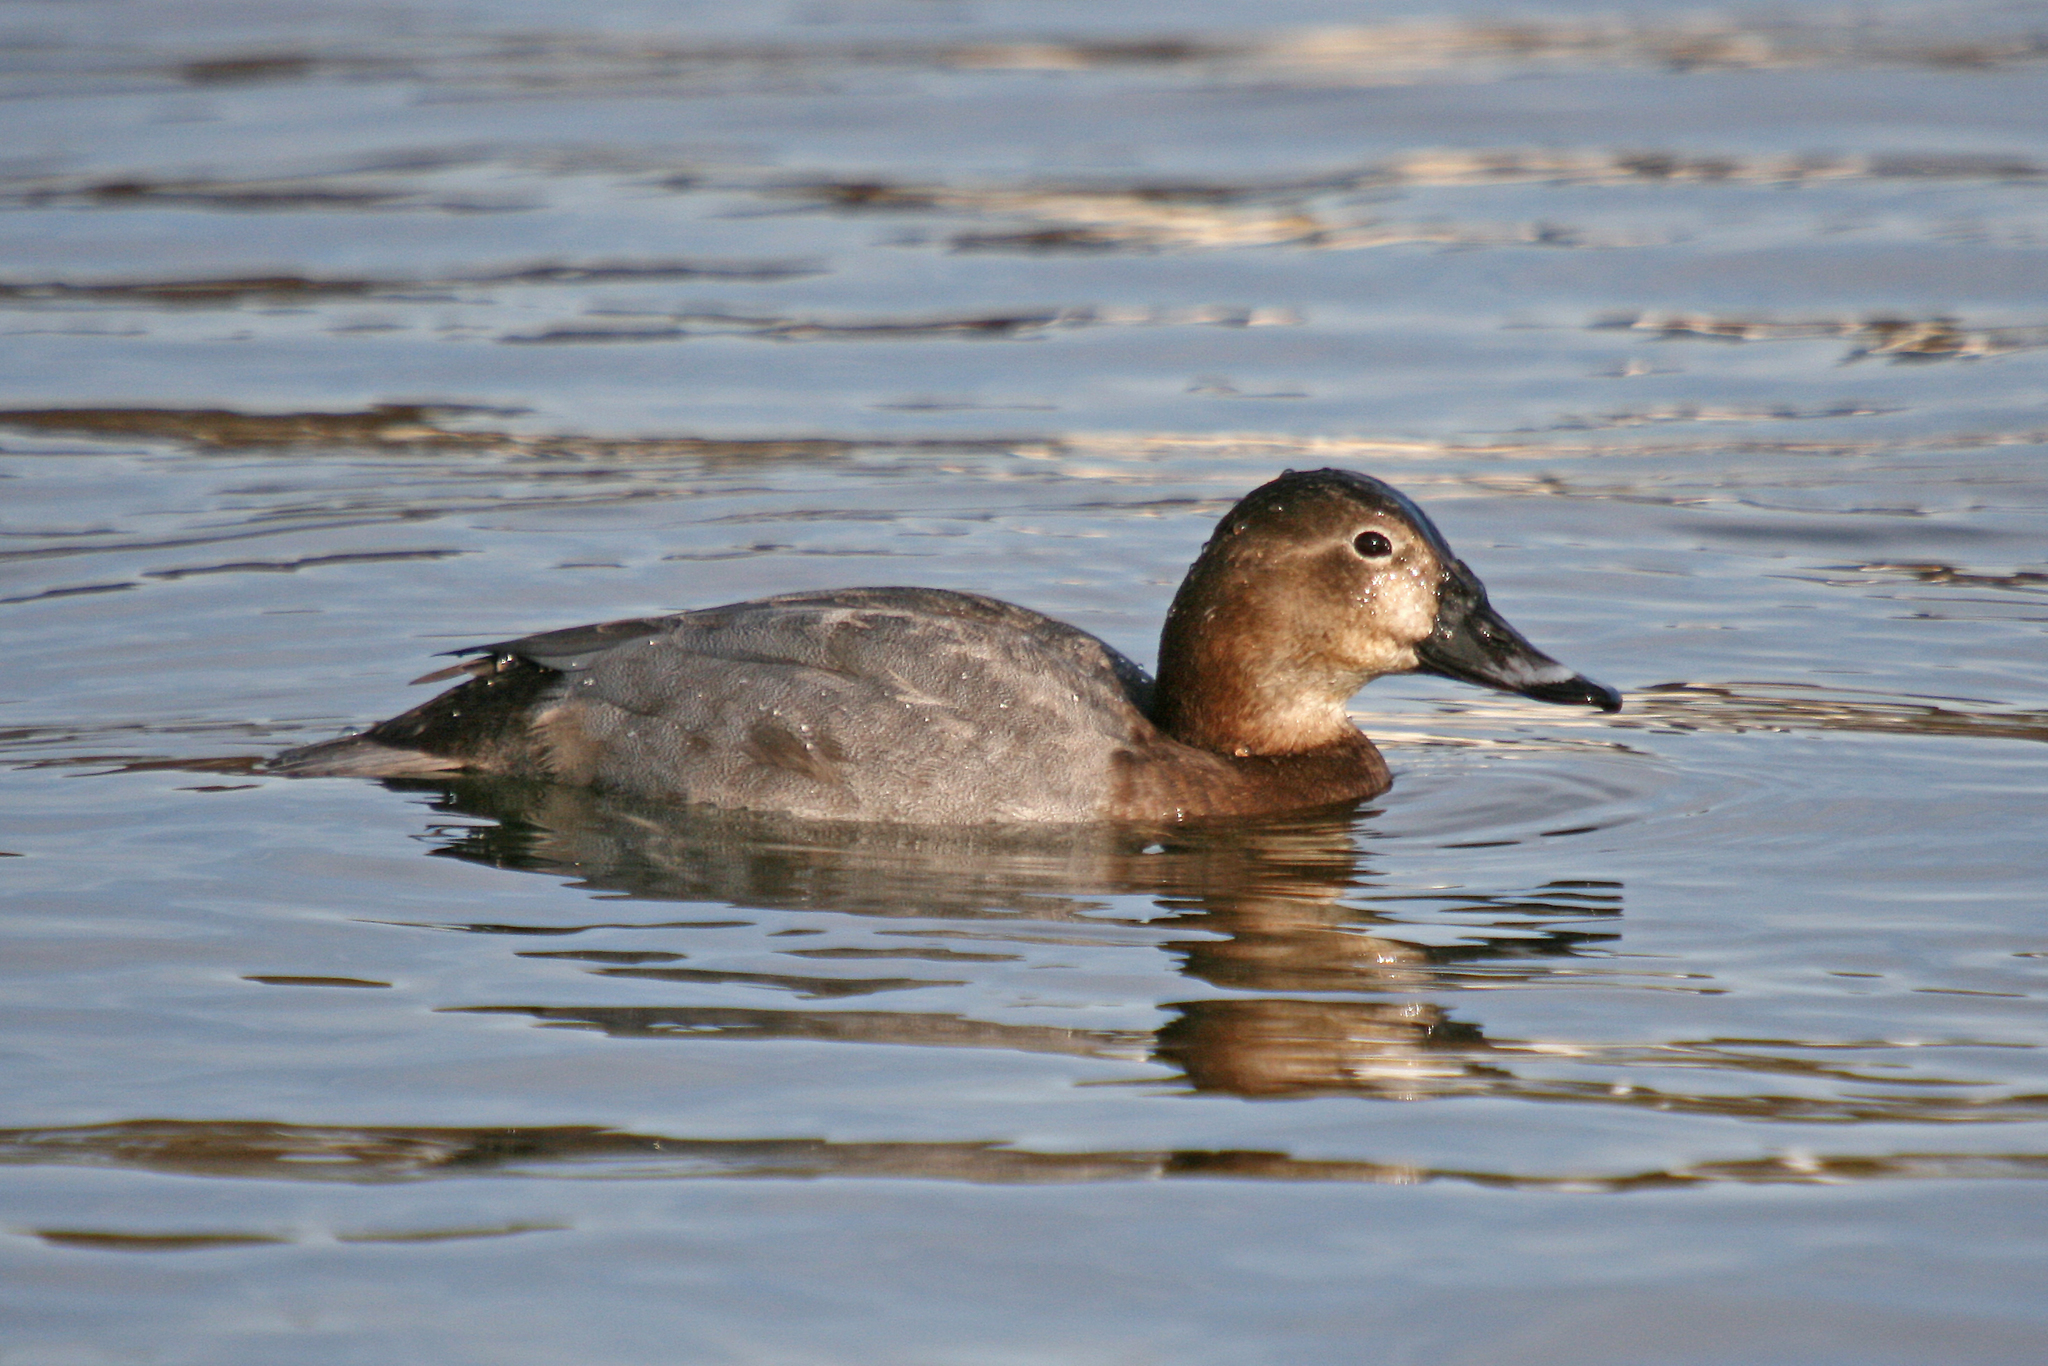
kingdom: Animalia
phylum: Chordata
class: Aves
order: Anseriformes
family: Anatidae
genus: Aythya
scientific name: Aythya ferina
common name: Common pochard
